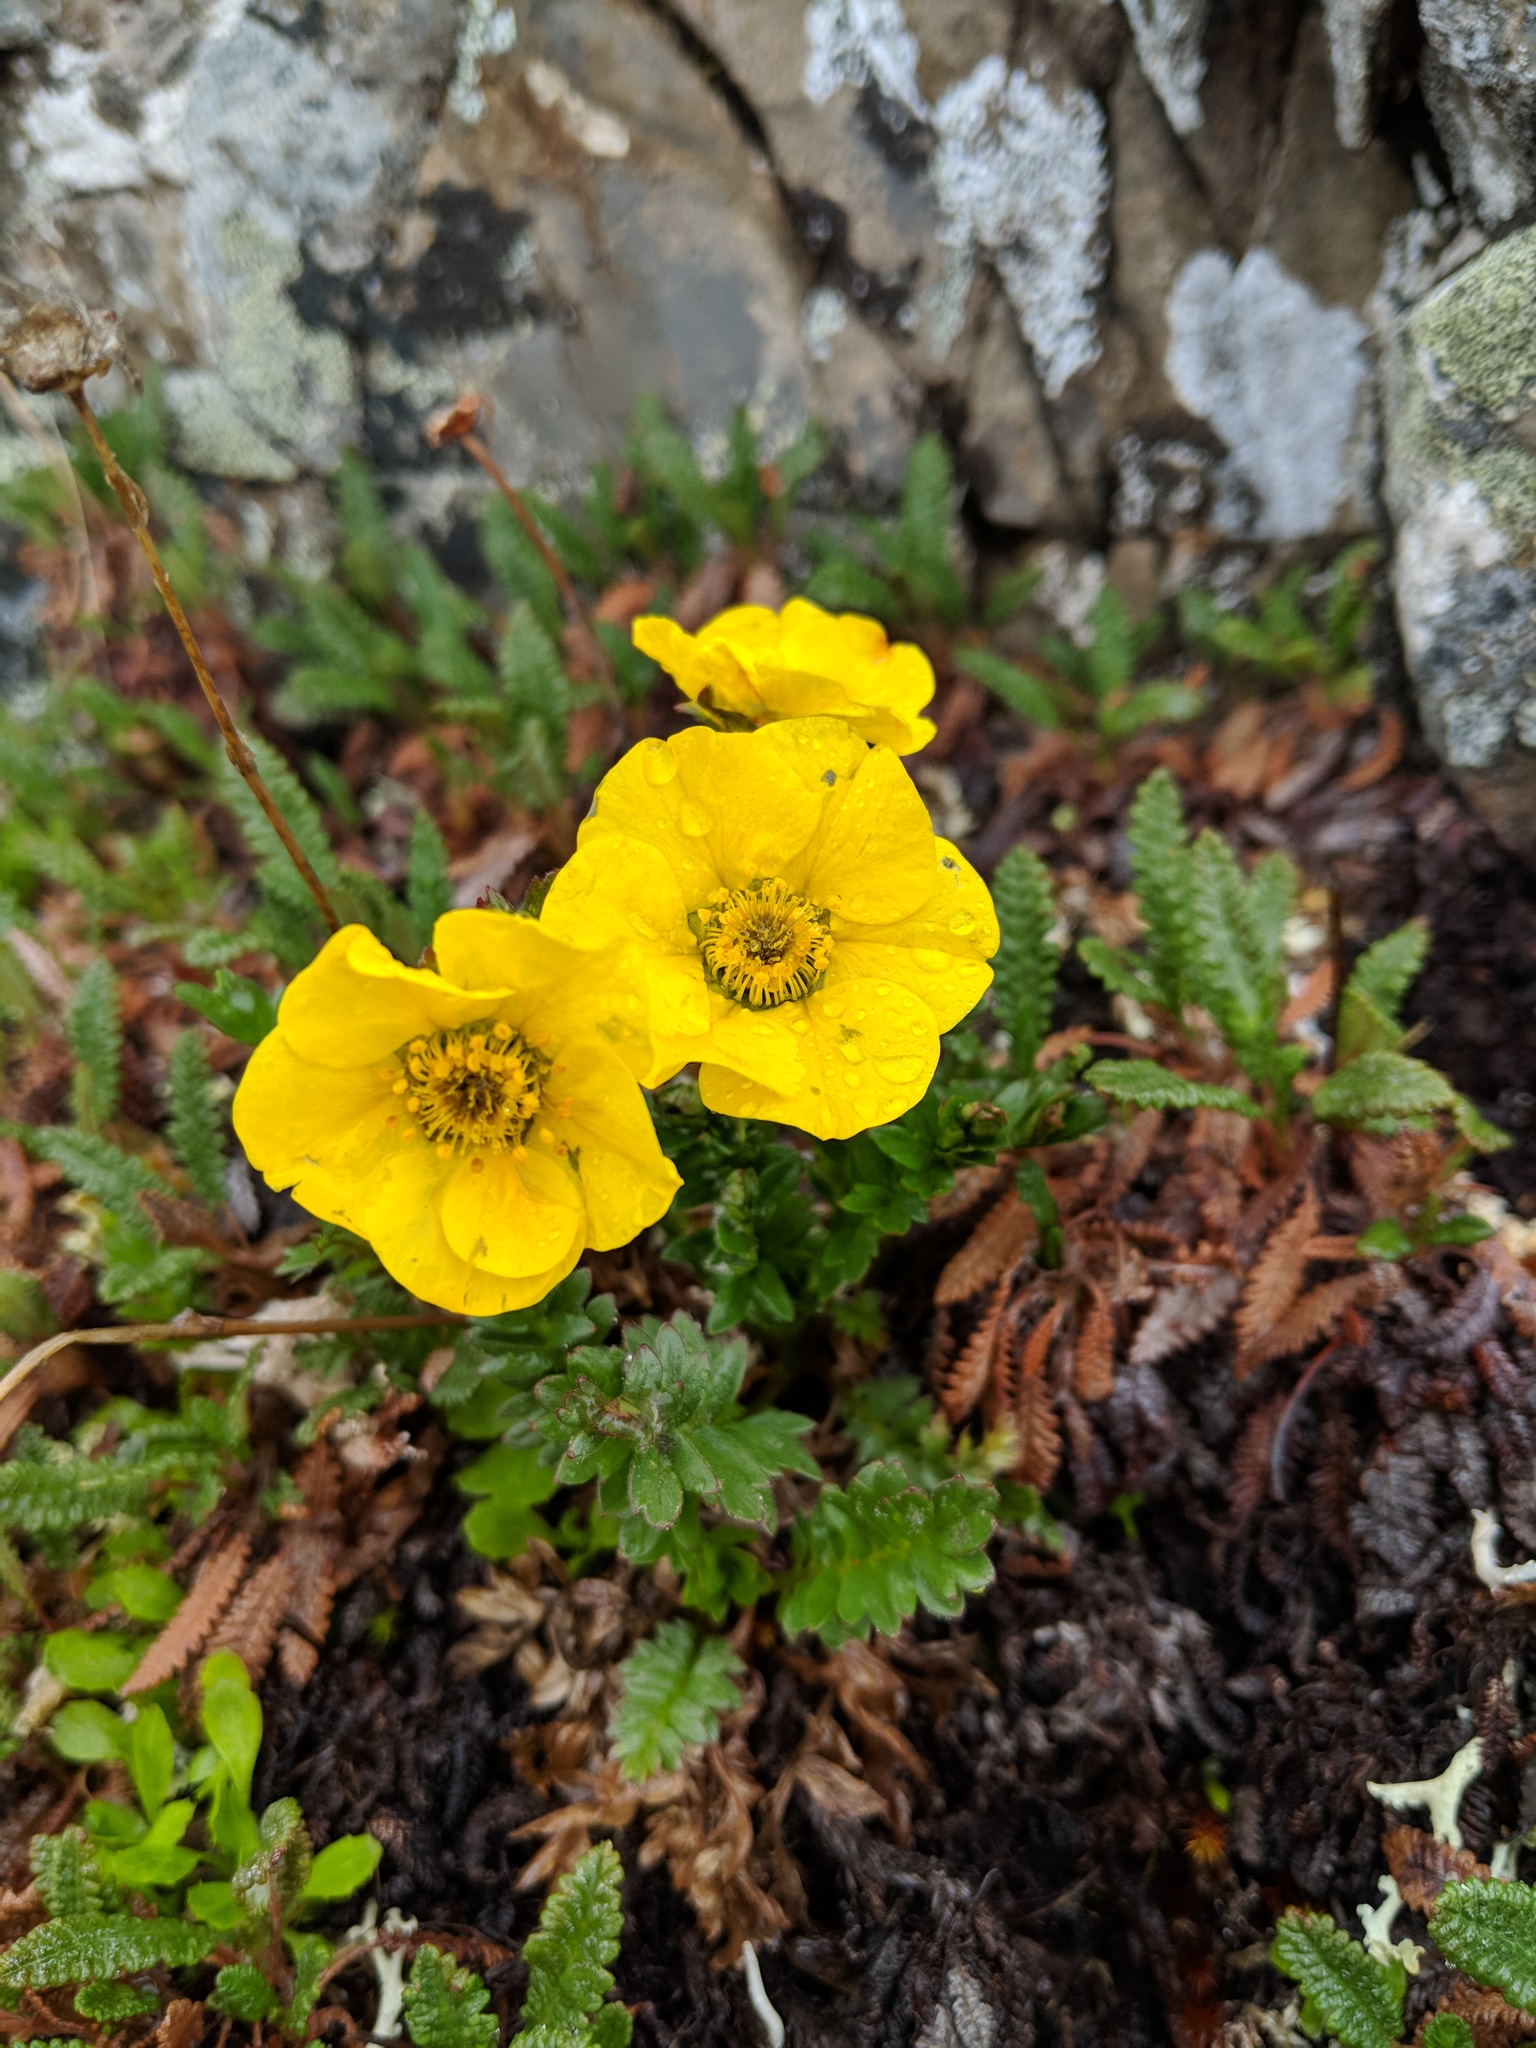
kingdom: Plantae
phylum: Tracheophyta
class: Magnoliopsida
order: Rosales
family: Rosaceae
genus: Geum
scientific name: Geum rossii
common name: Alpine avens
